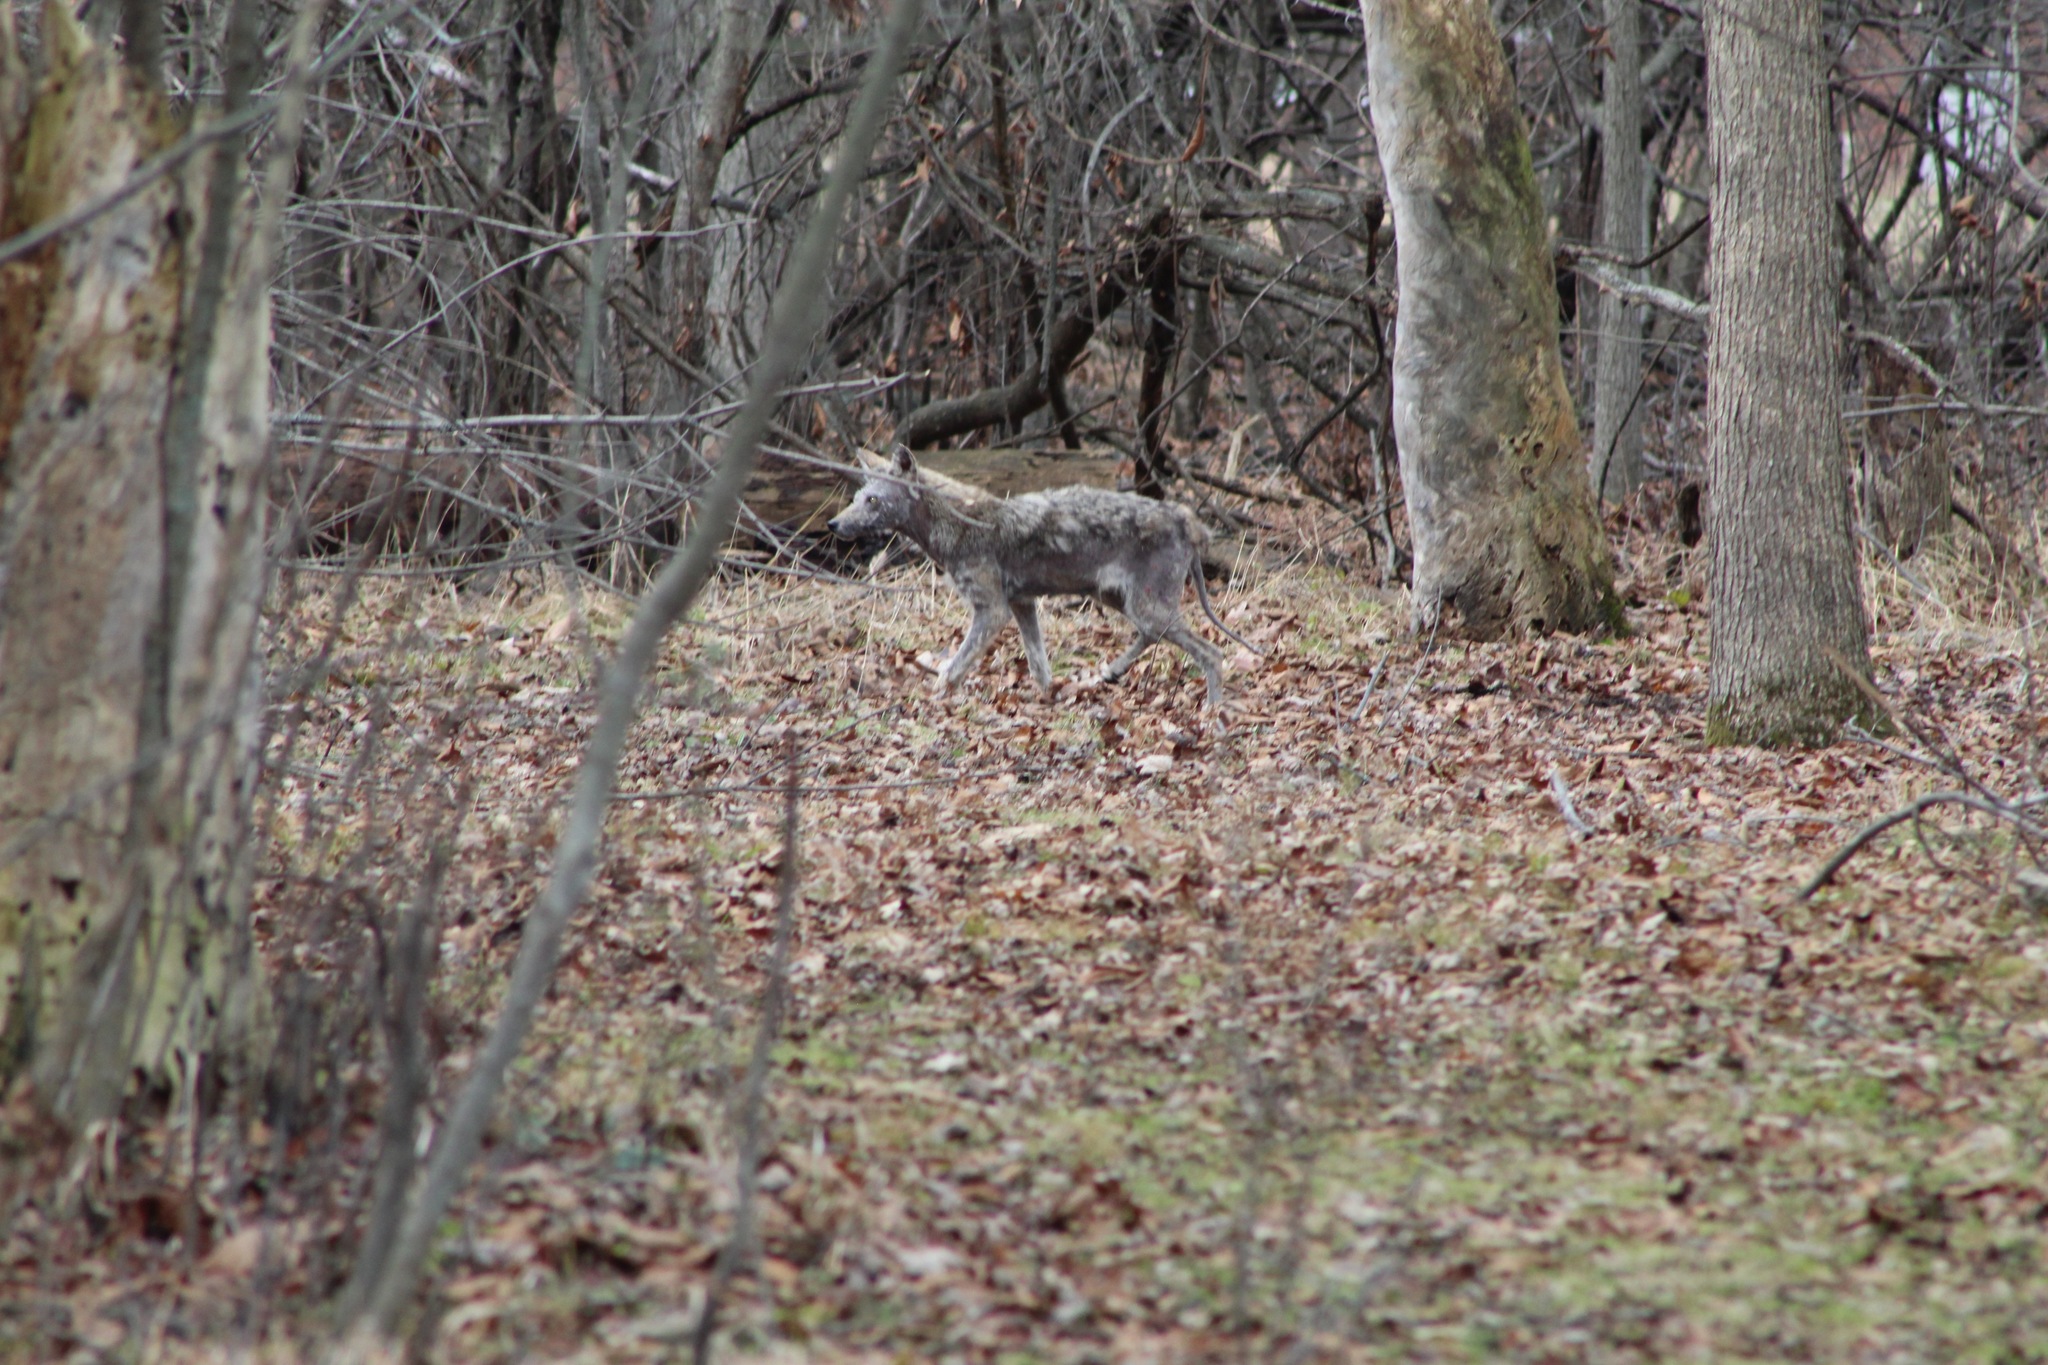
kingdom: Animalia
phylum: Chordata
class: Mammalia
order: Carnivora
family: Canidae
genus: Canis
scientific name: Canis latrans
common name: Coyote
